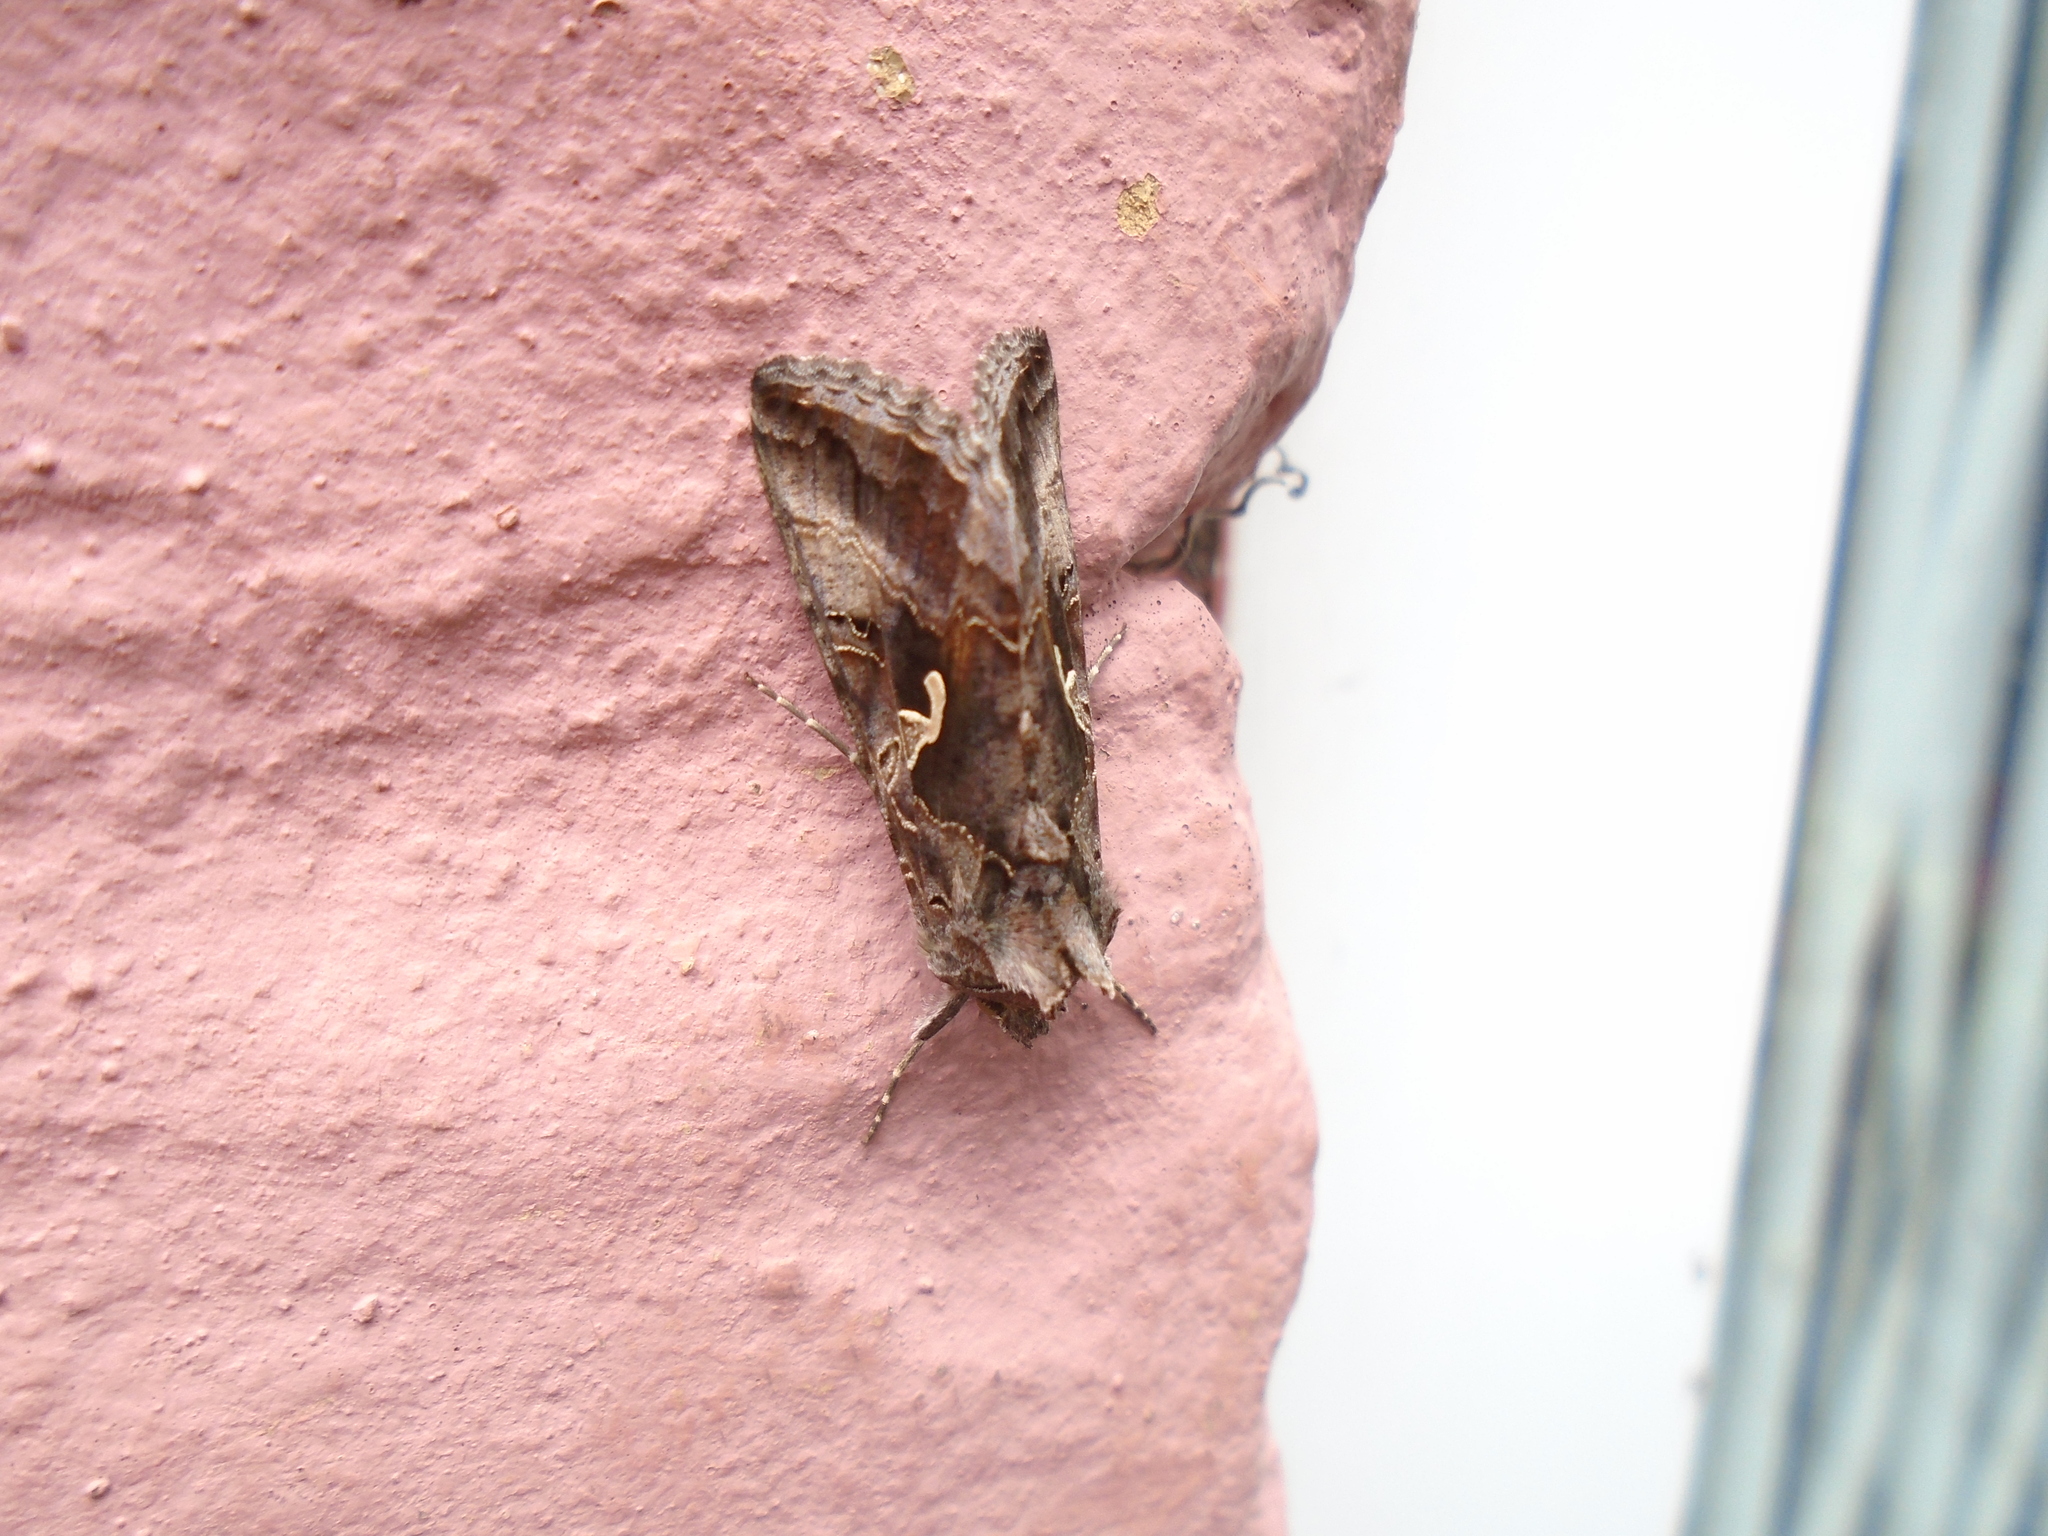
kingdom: Animalia
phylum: Arthropoda
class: Insecta
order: Lepidoptera
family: Noctuidae
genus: Autographa
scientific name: Autographa gamma
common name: Silver y
